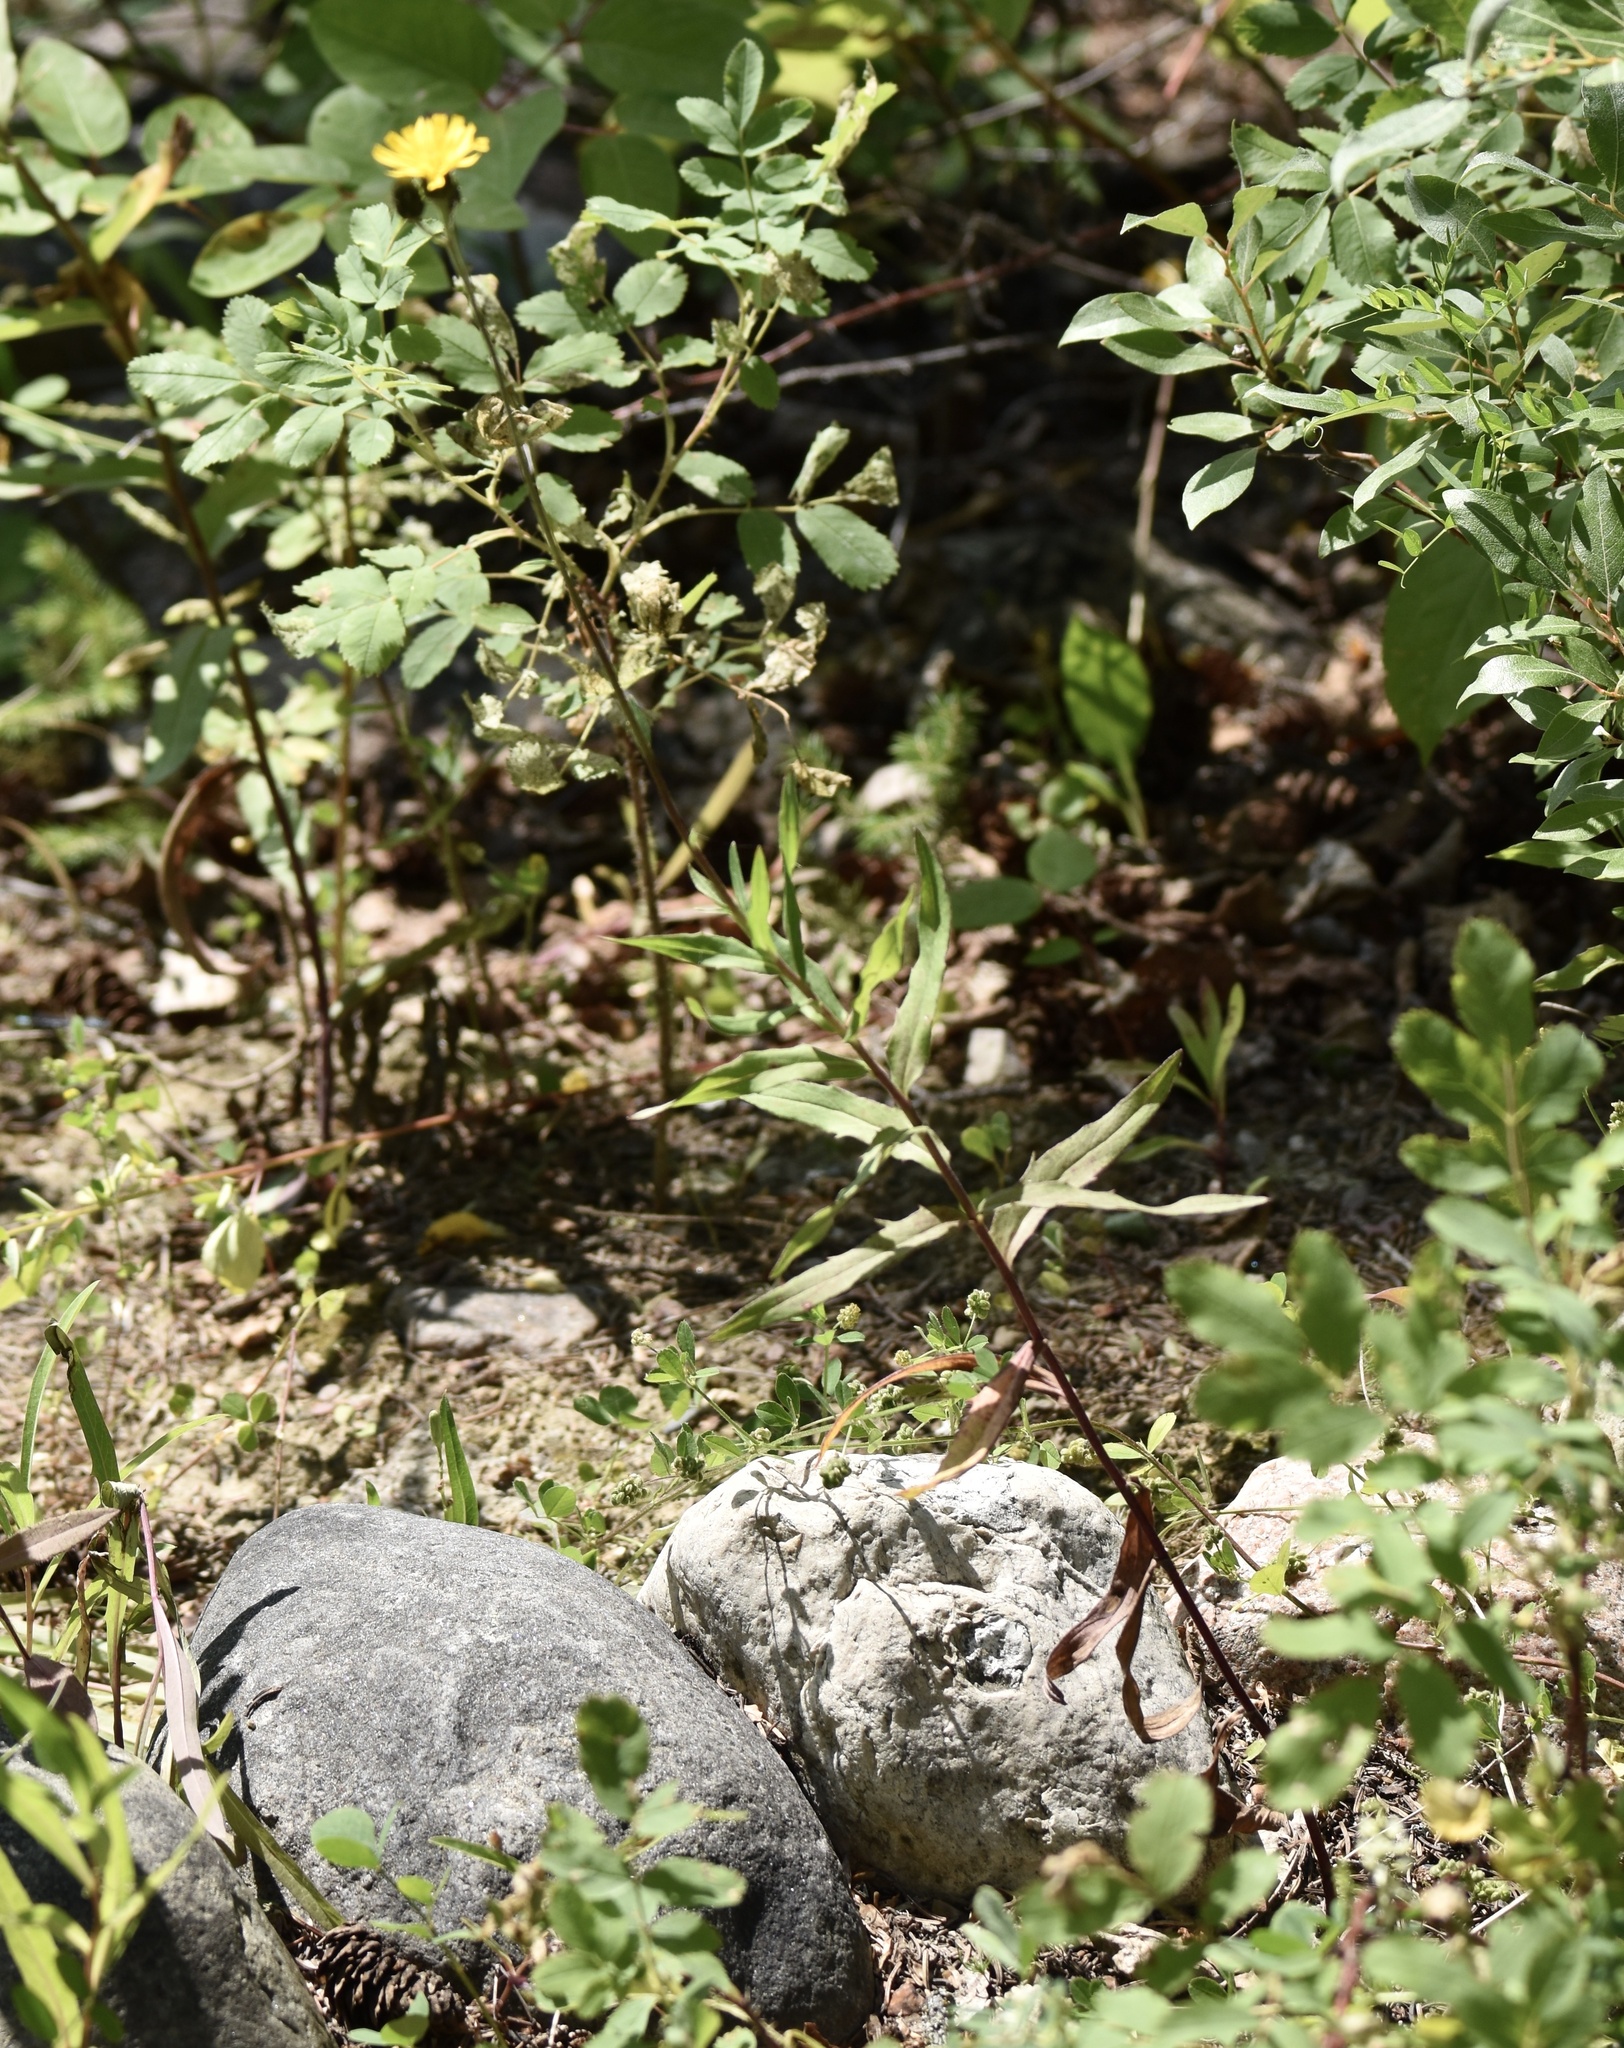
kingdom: Plantae
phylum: Tracheophyta
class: Magnoliopsida
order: Asterales
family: Asteraceae
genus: Hieracium
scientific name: Hieracium umbellatum
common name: Northern hawkweed
